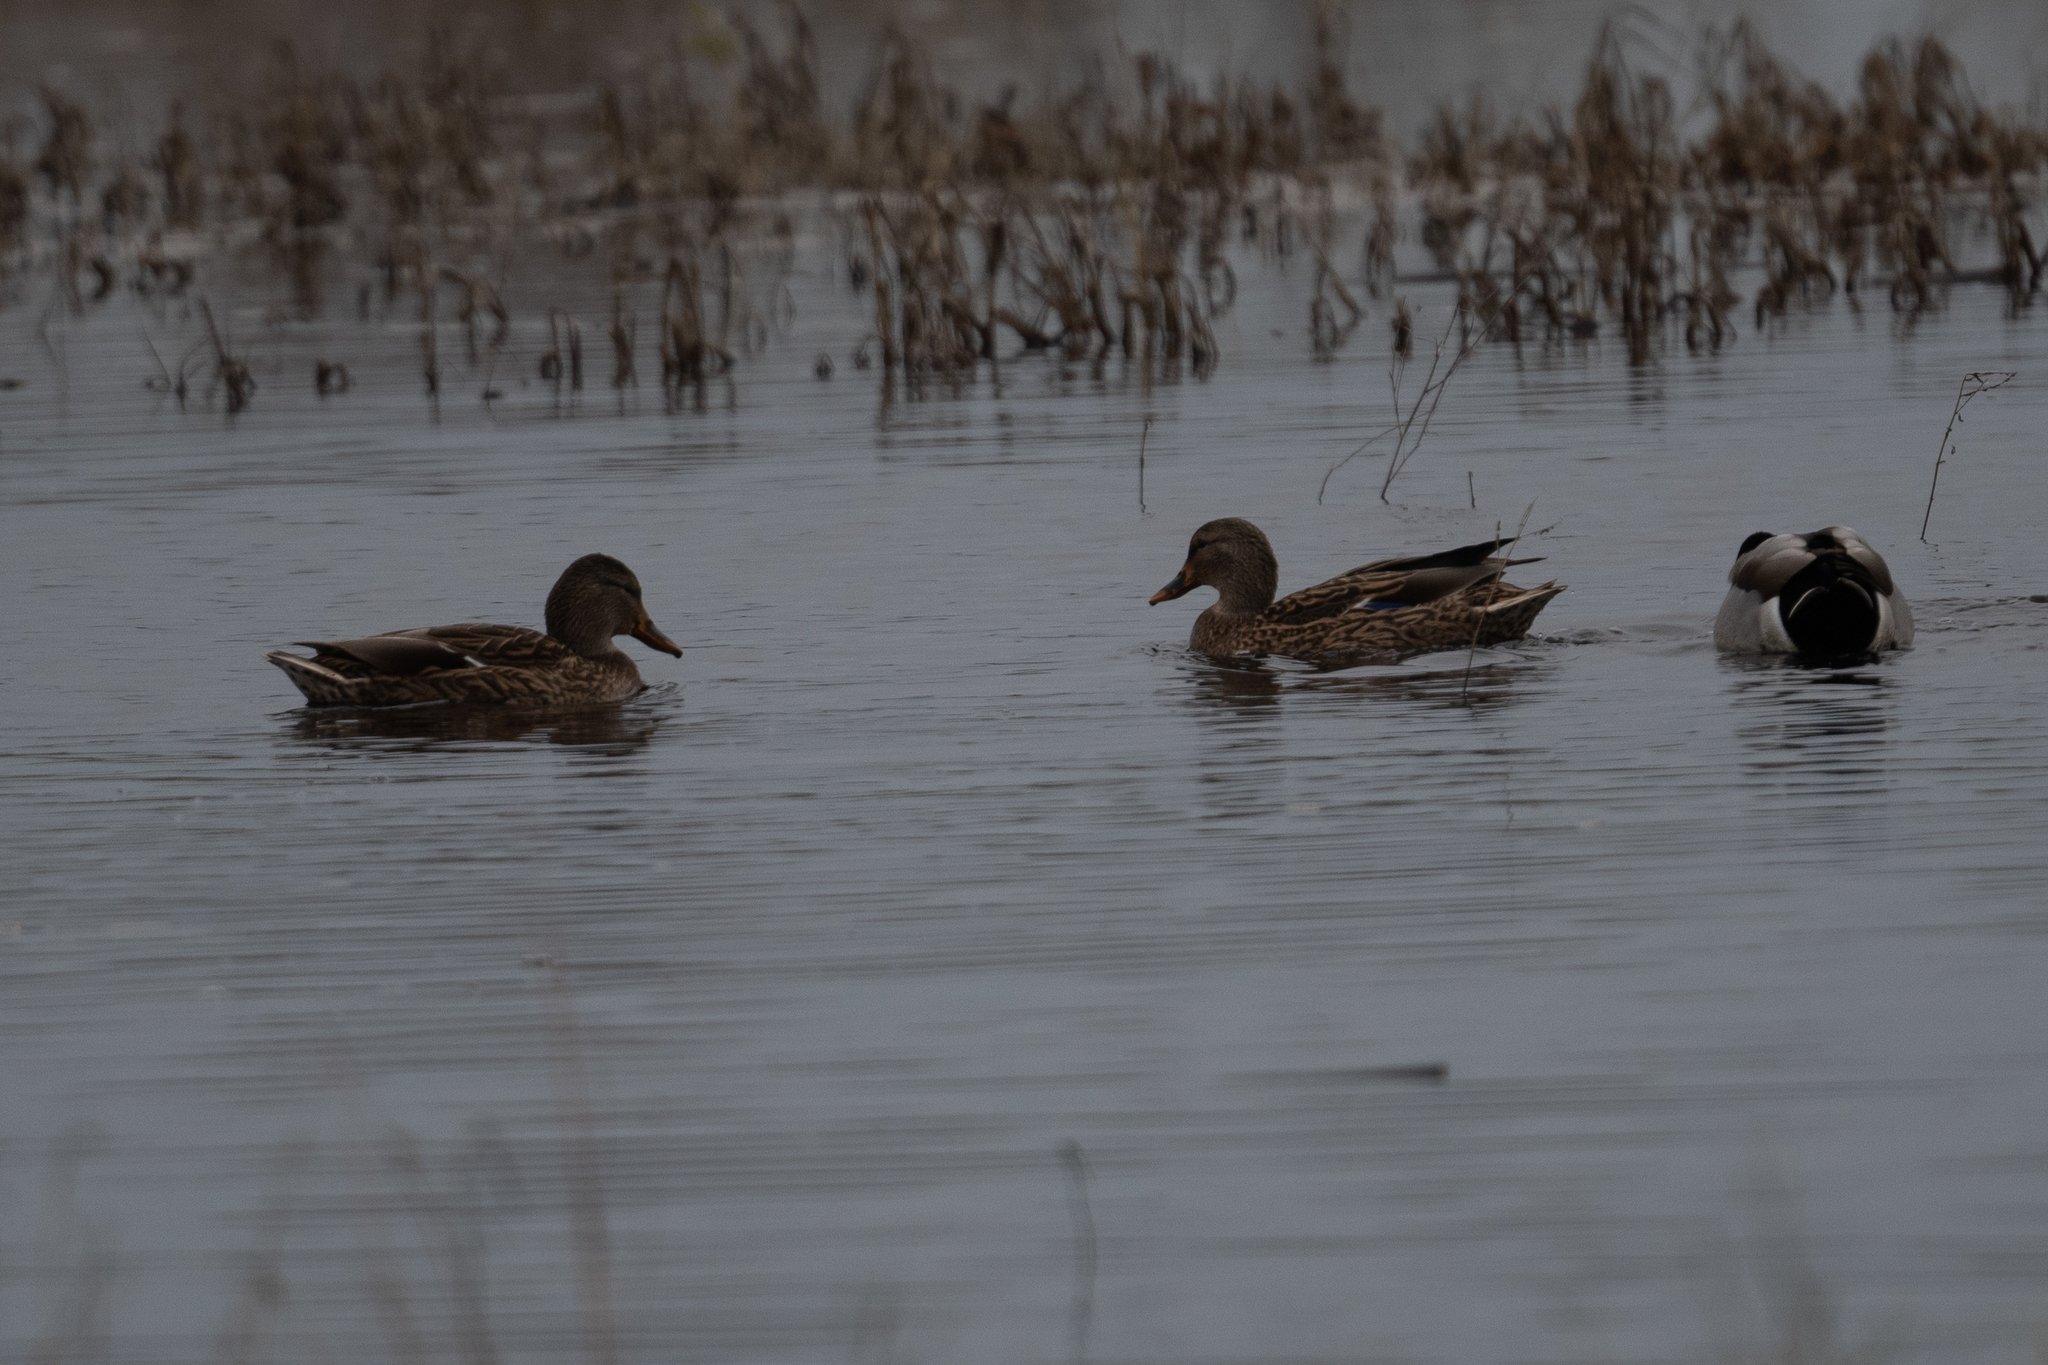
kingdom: Animalia
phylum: Chordata
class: Aves
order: Anseriformes
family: Anatidae
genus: Anas
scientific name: Anas platyrhynchos
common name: Mallard
